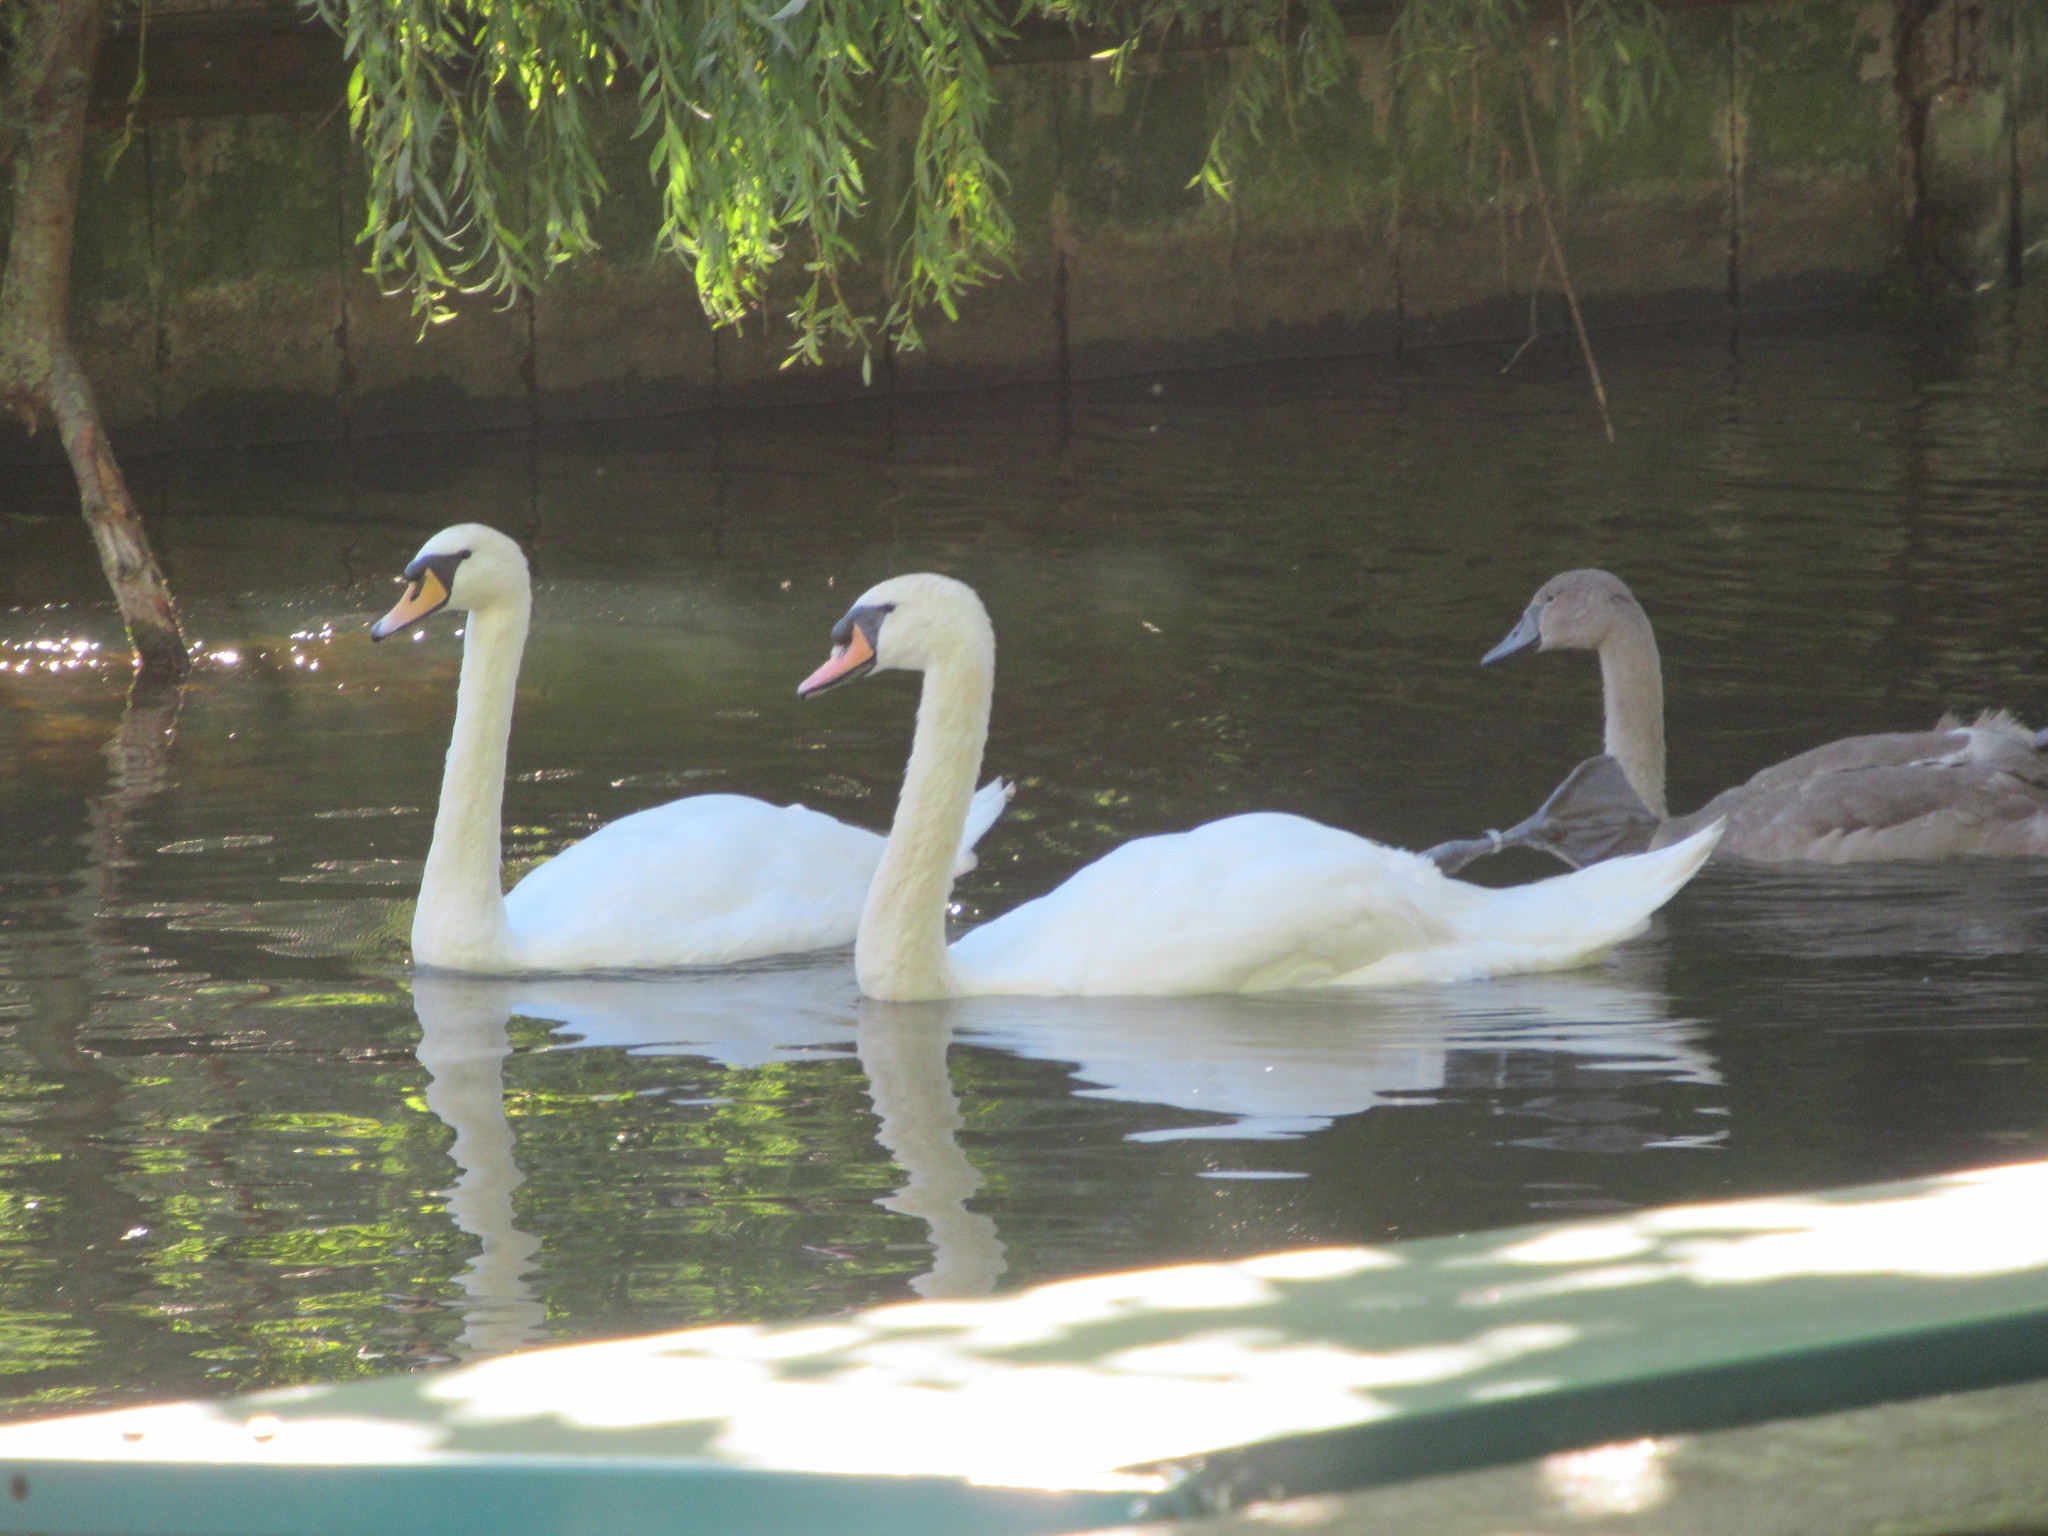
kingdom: Animalia
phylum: Chordata
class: Aves
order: Anseriformes
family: Anatidae
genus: Cygnus
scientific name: Cygnus olor
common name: Mute swan
